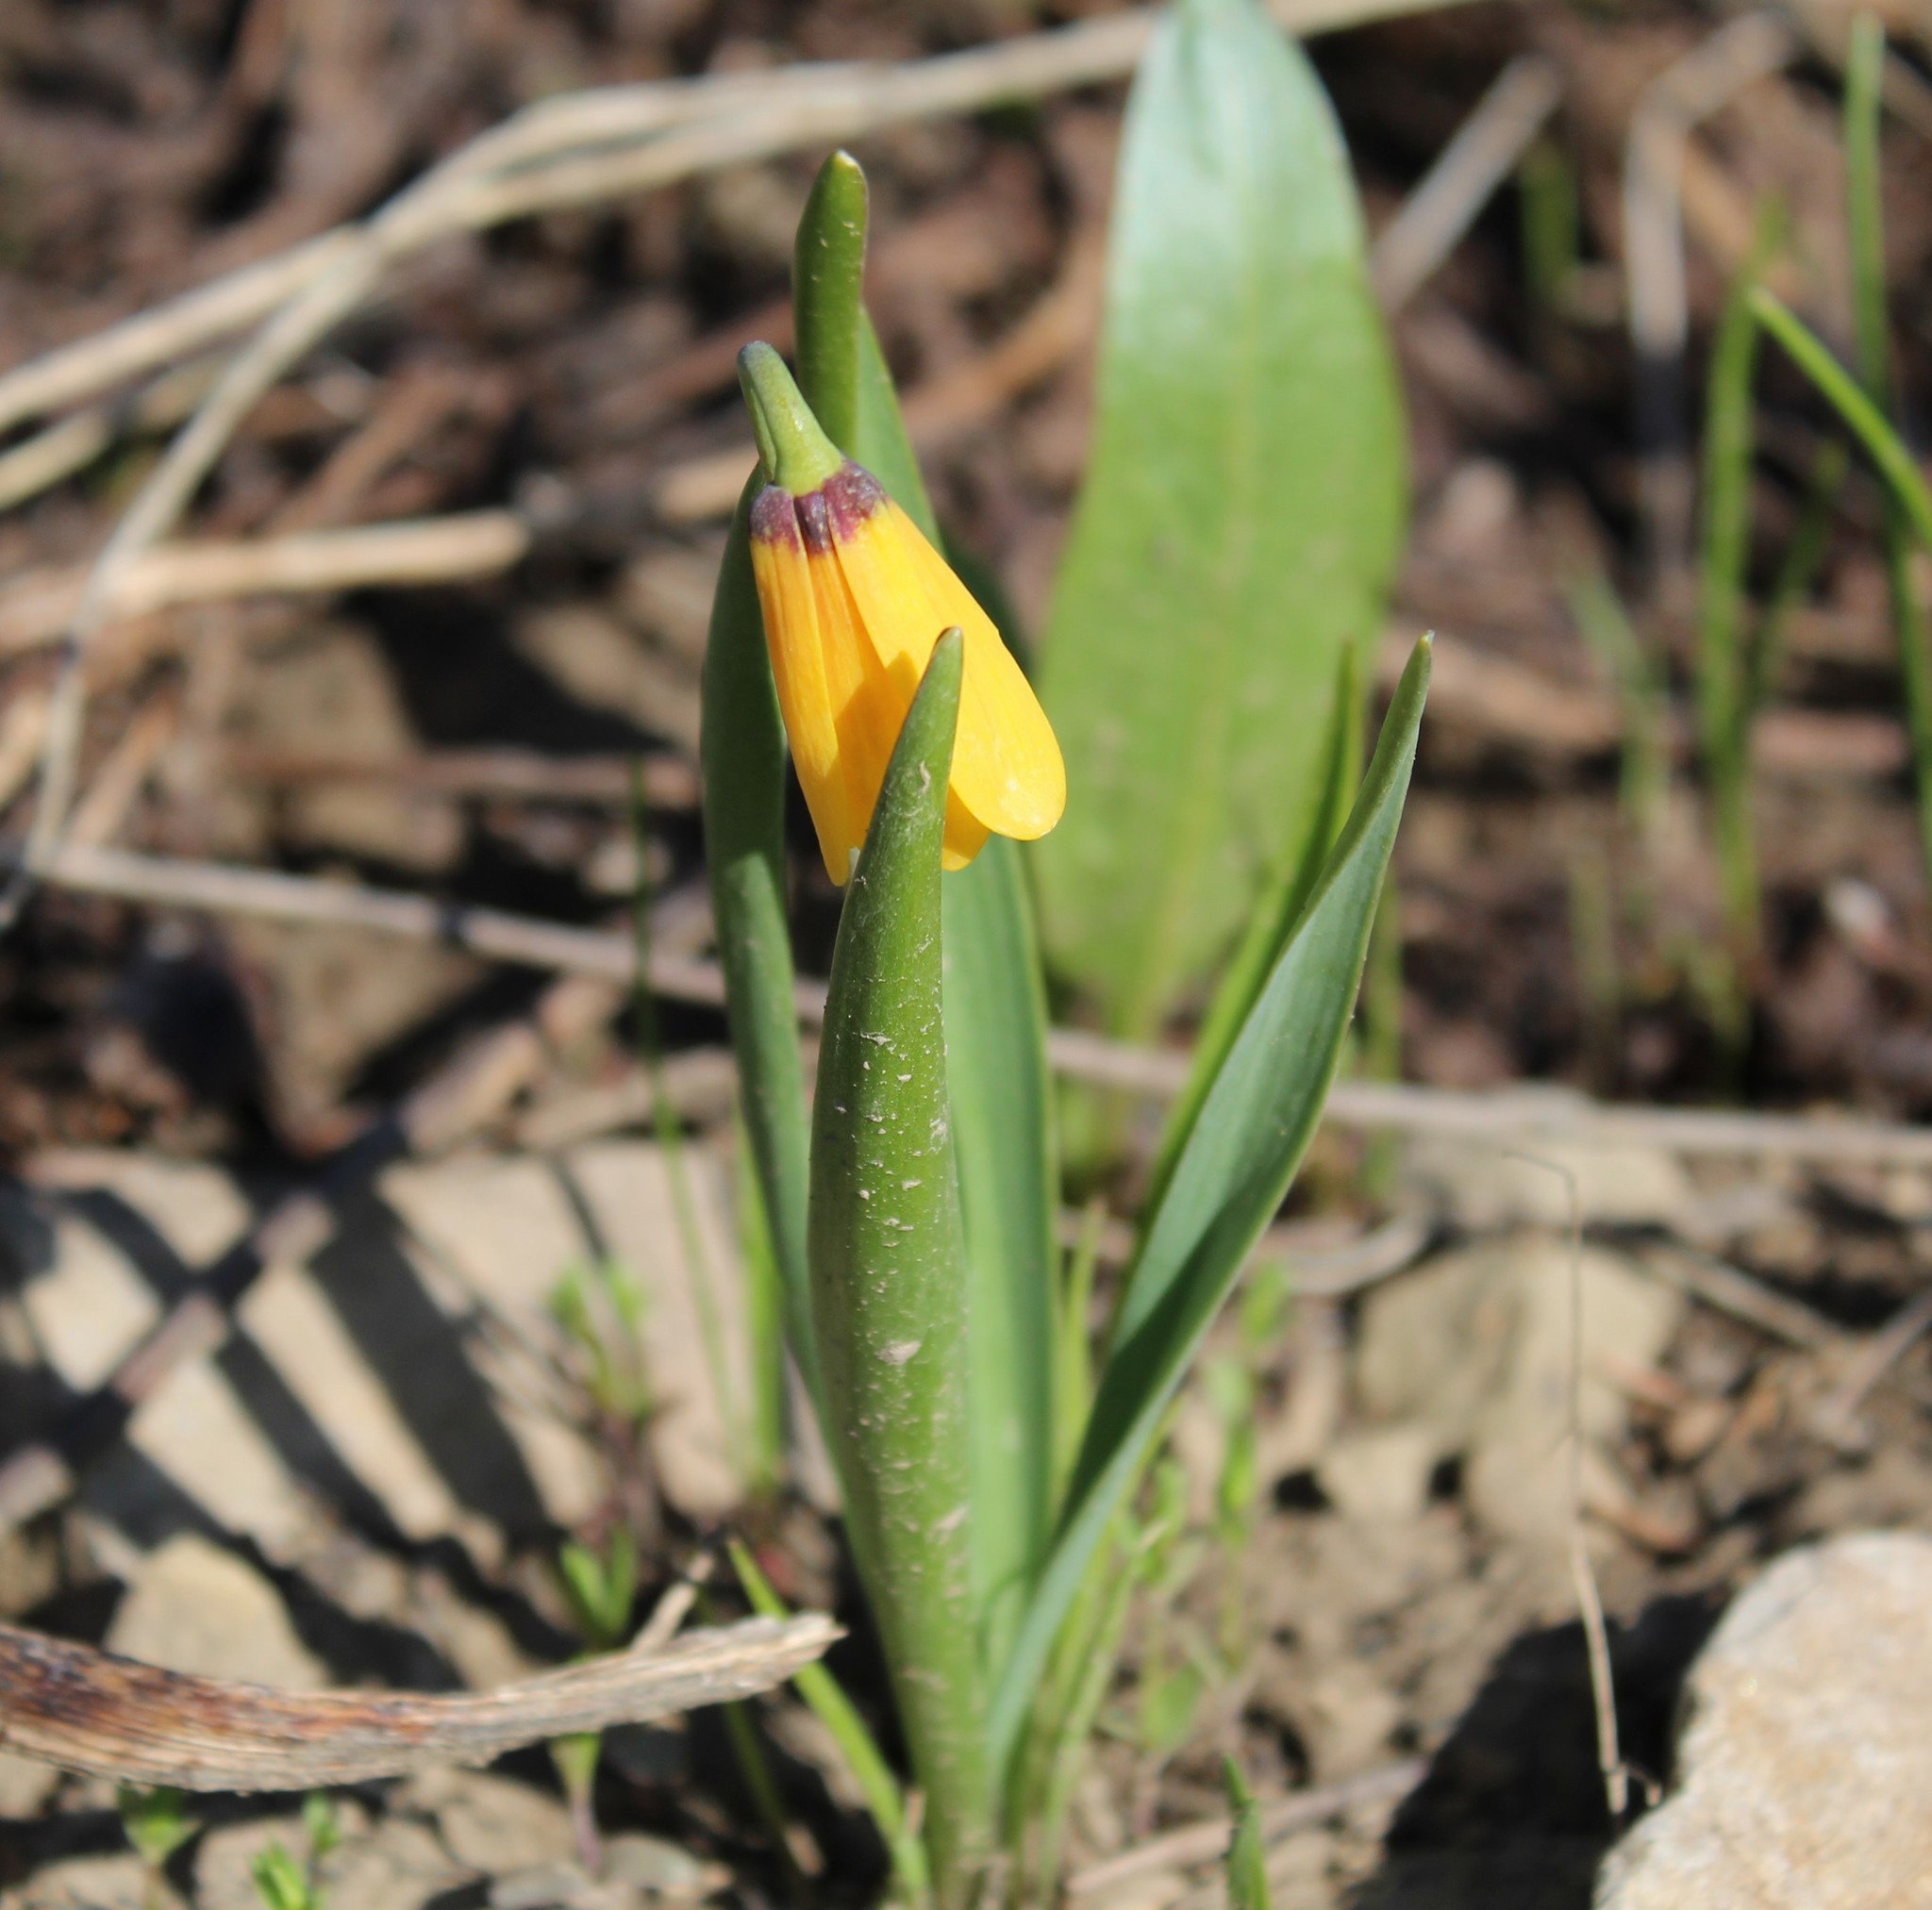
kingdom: Plantae
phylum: Tracheophyta
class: Liliopsida
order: Liliales
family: Liliaceae
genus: Fritillaria
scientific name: Fritillaria pudica
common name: Yellow fritillary
